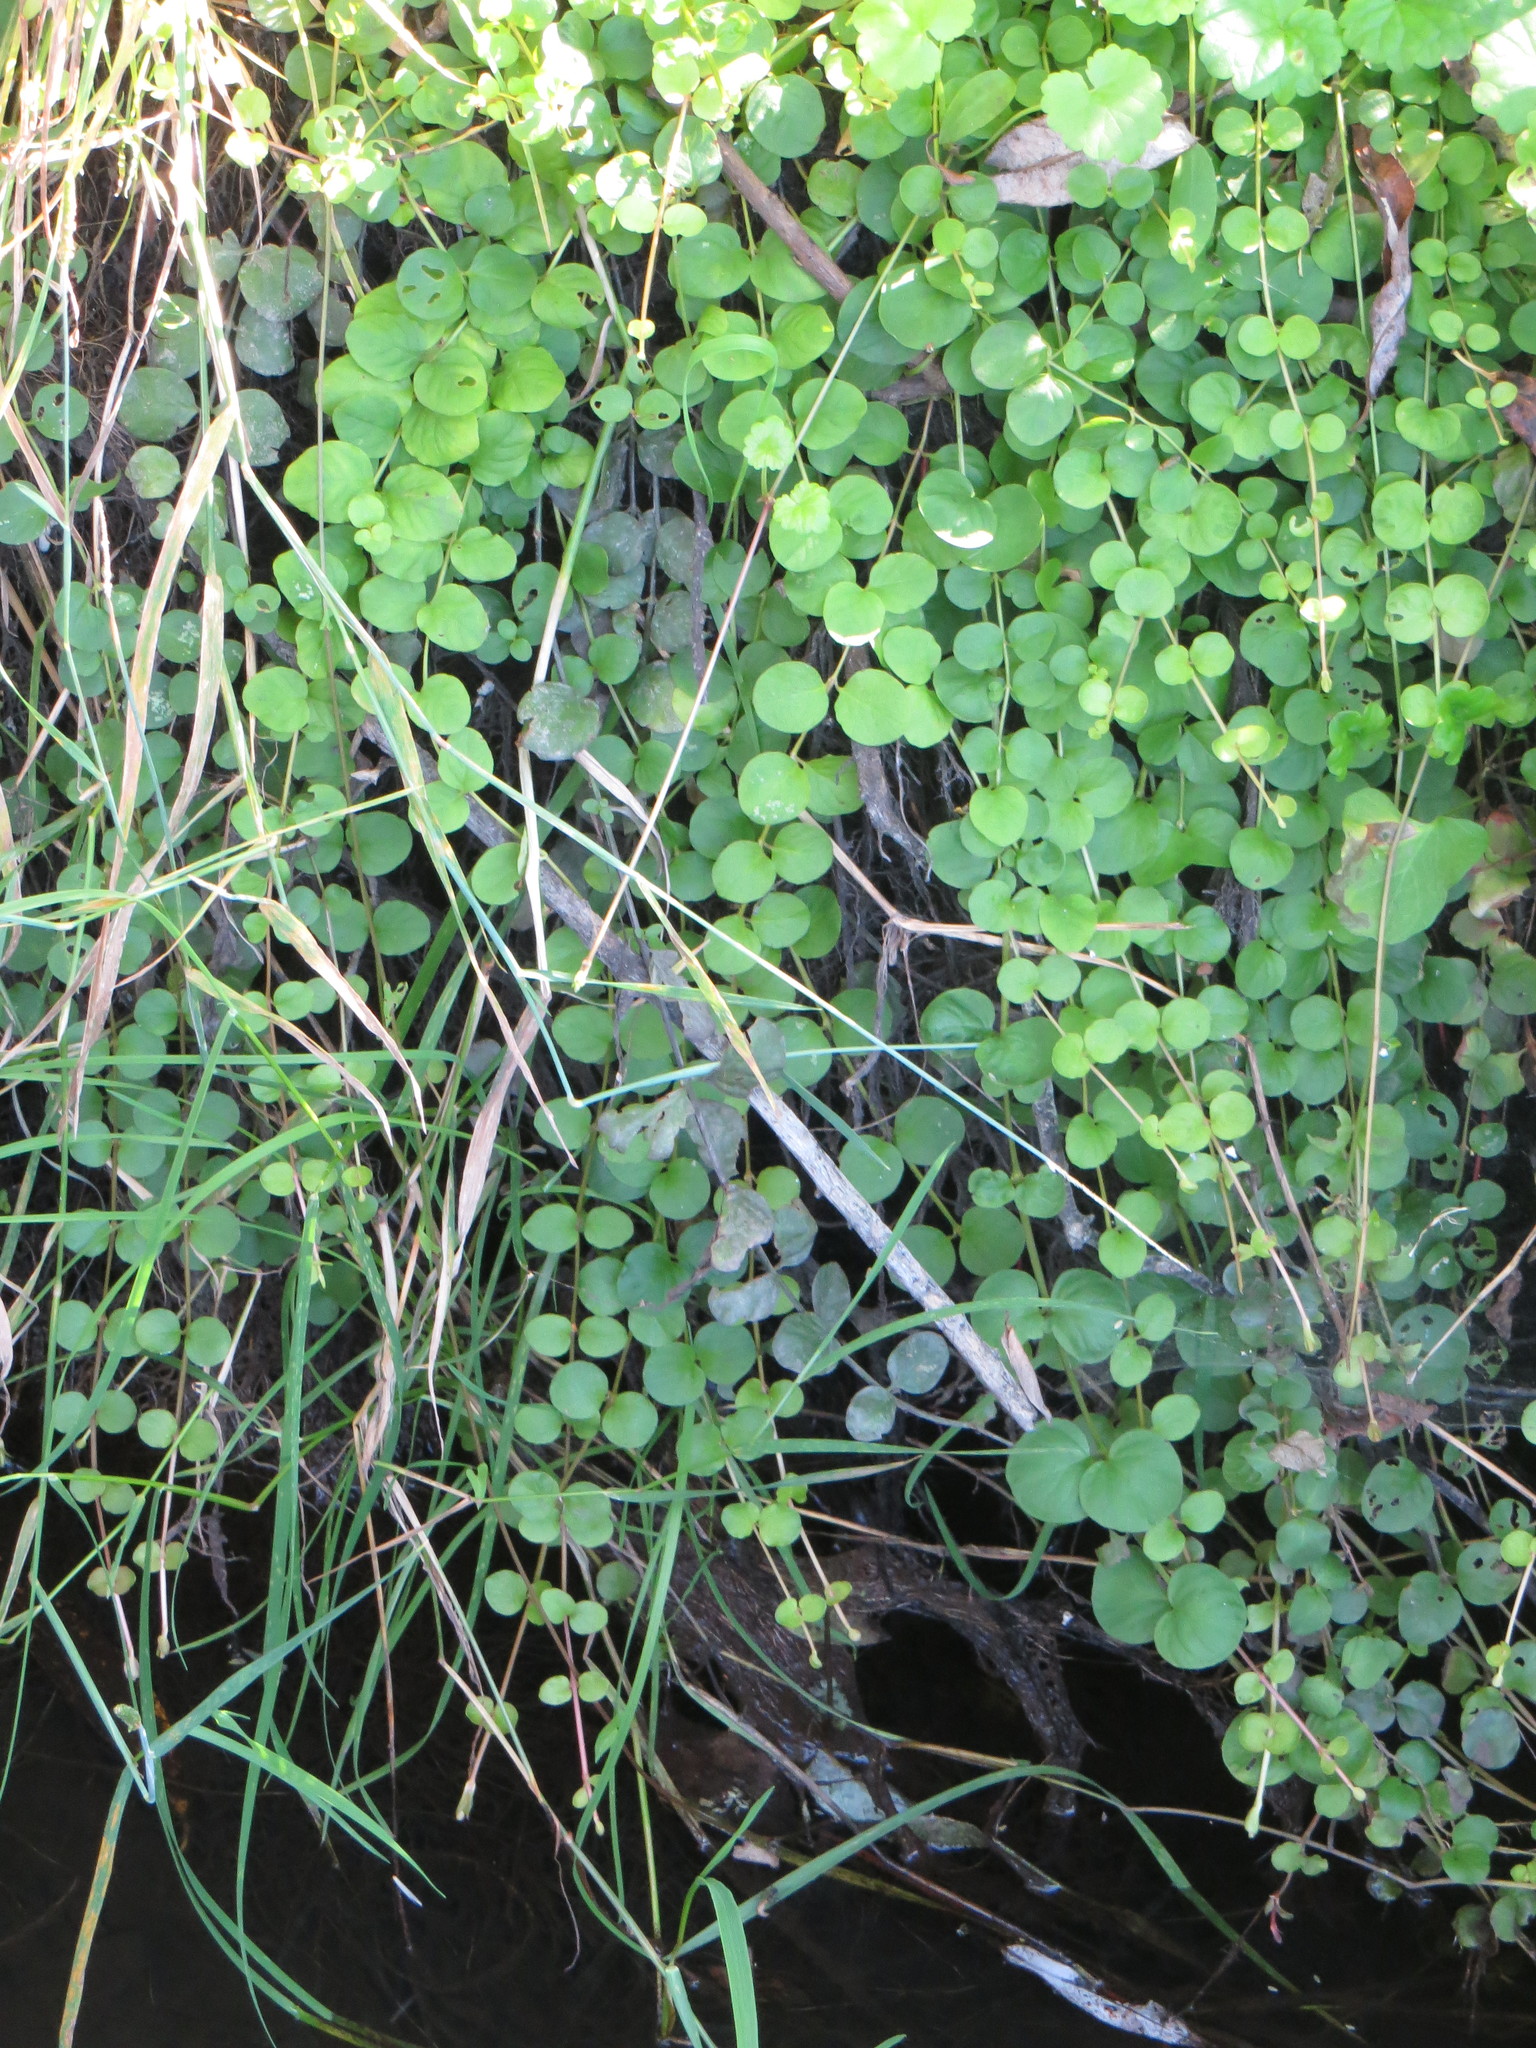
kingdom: Plantae
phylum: Tracheophyta
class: Magnoliopsida
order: Ericales
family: Primulaceae
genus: Lysimachia
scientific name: Lysimachia nummularia
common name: Moneywort
